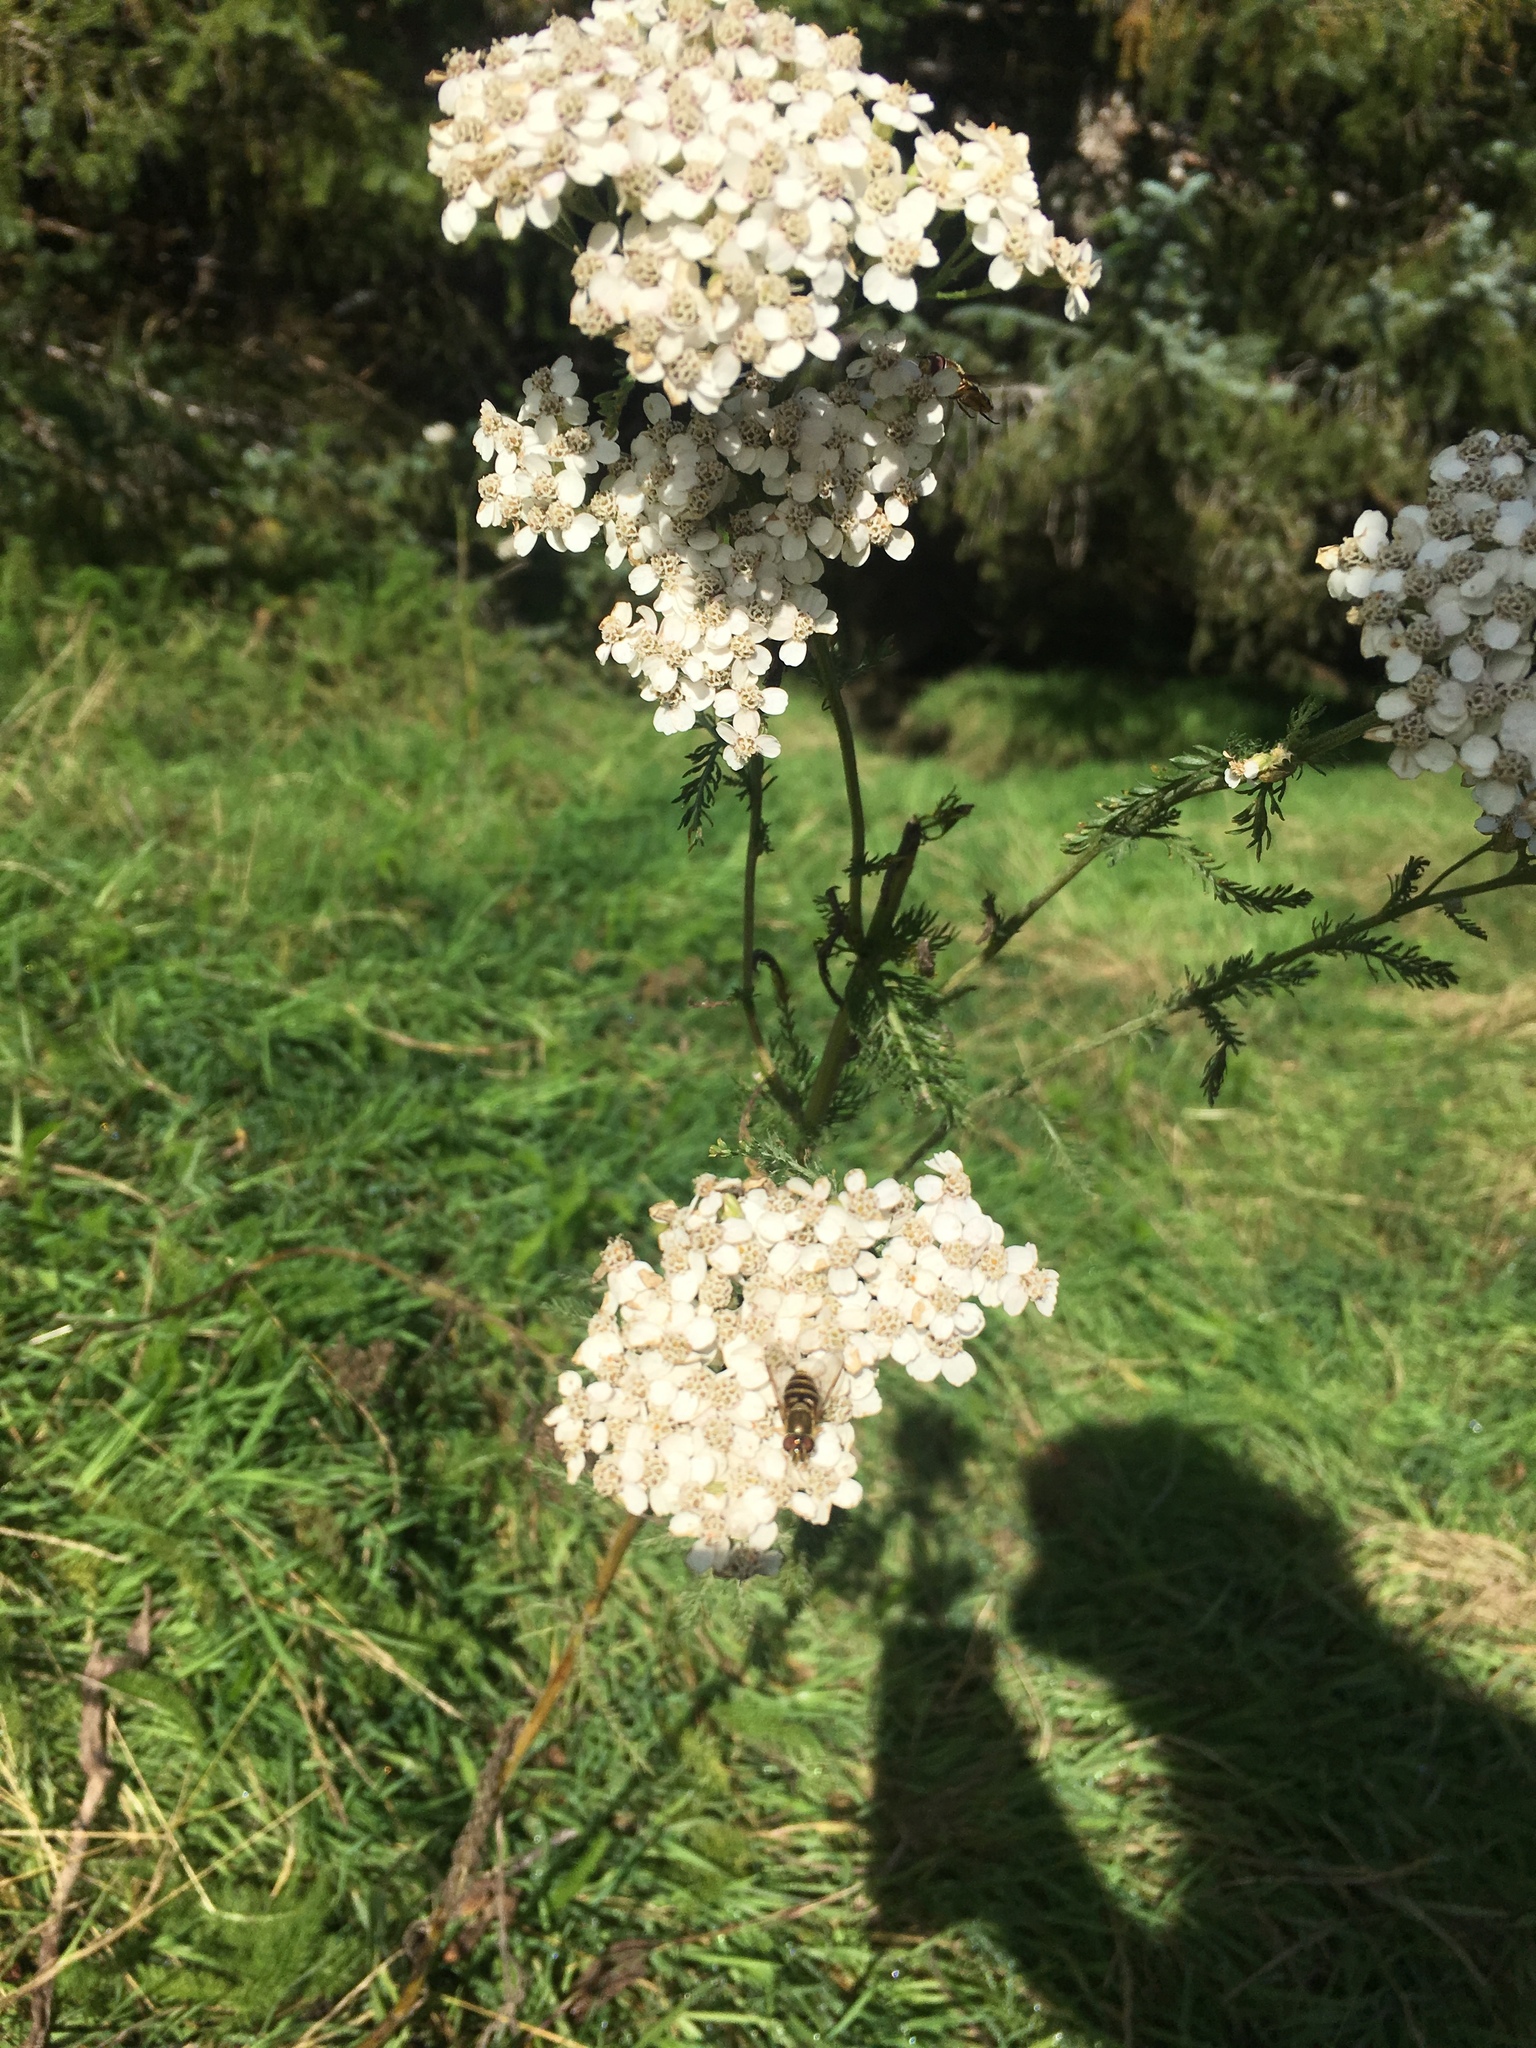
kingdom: Plantae
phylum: Tracheophyta
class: Magnoliopsida
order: Asterales
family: Asteraceae
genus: Achillea
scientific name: Achillea millefolium
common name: Yarrow
